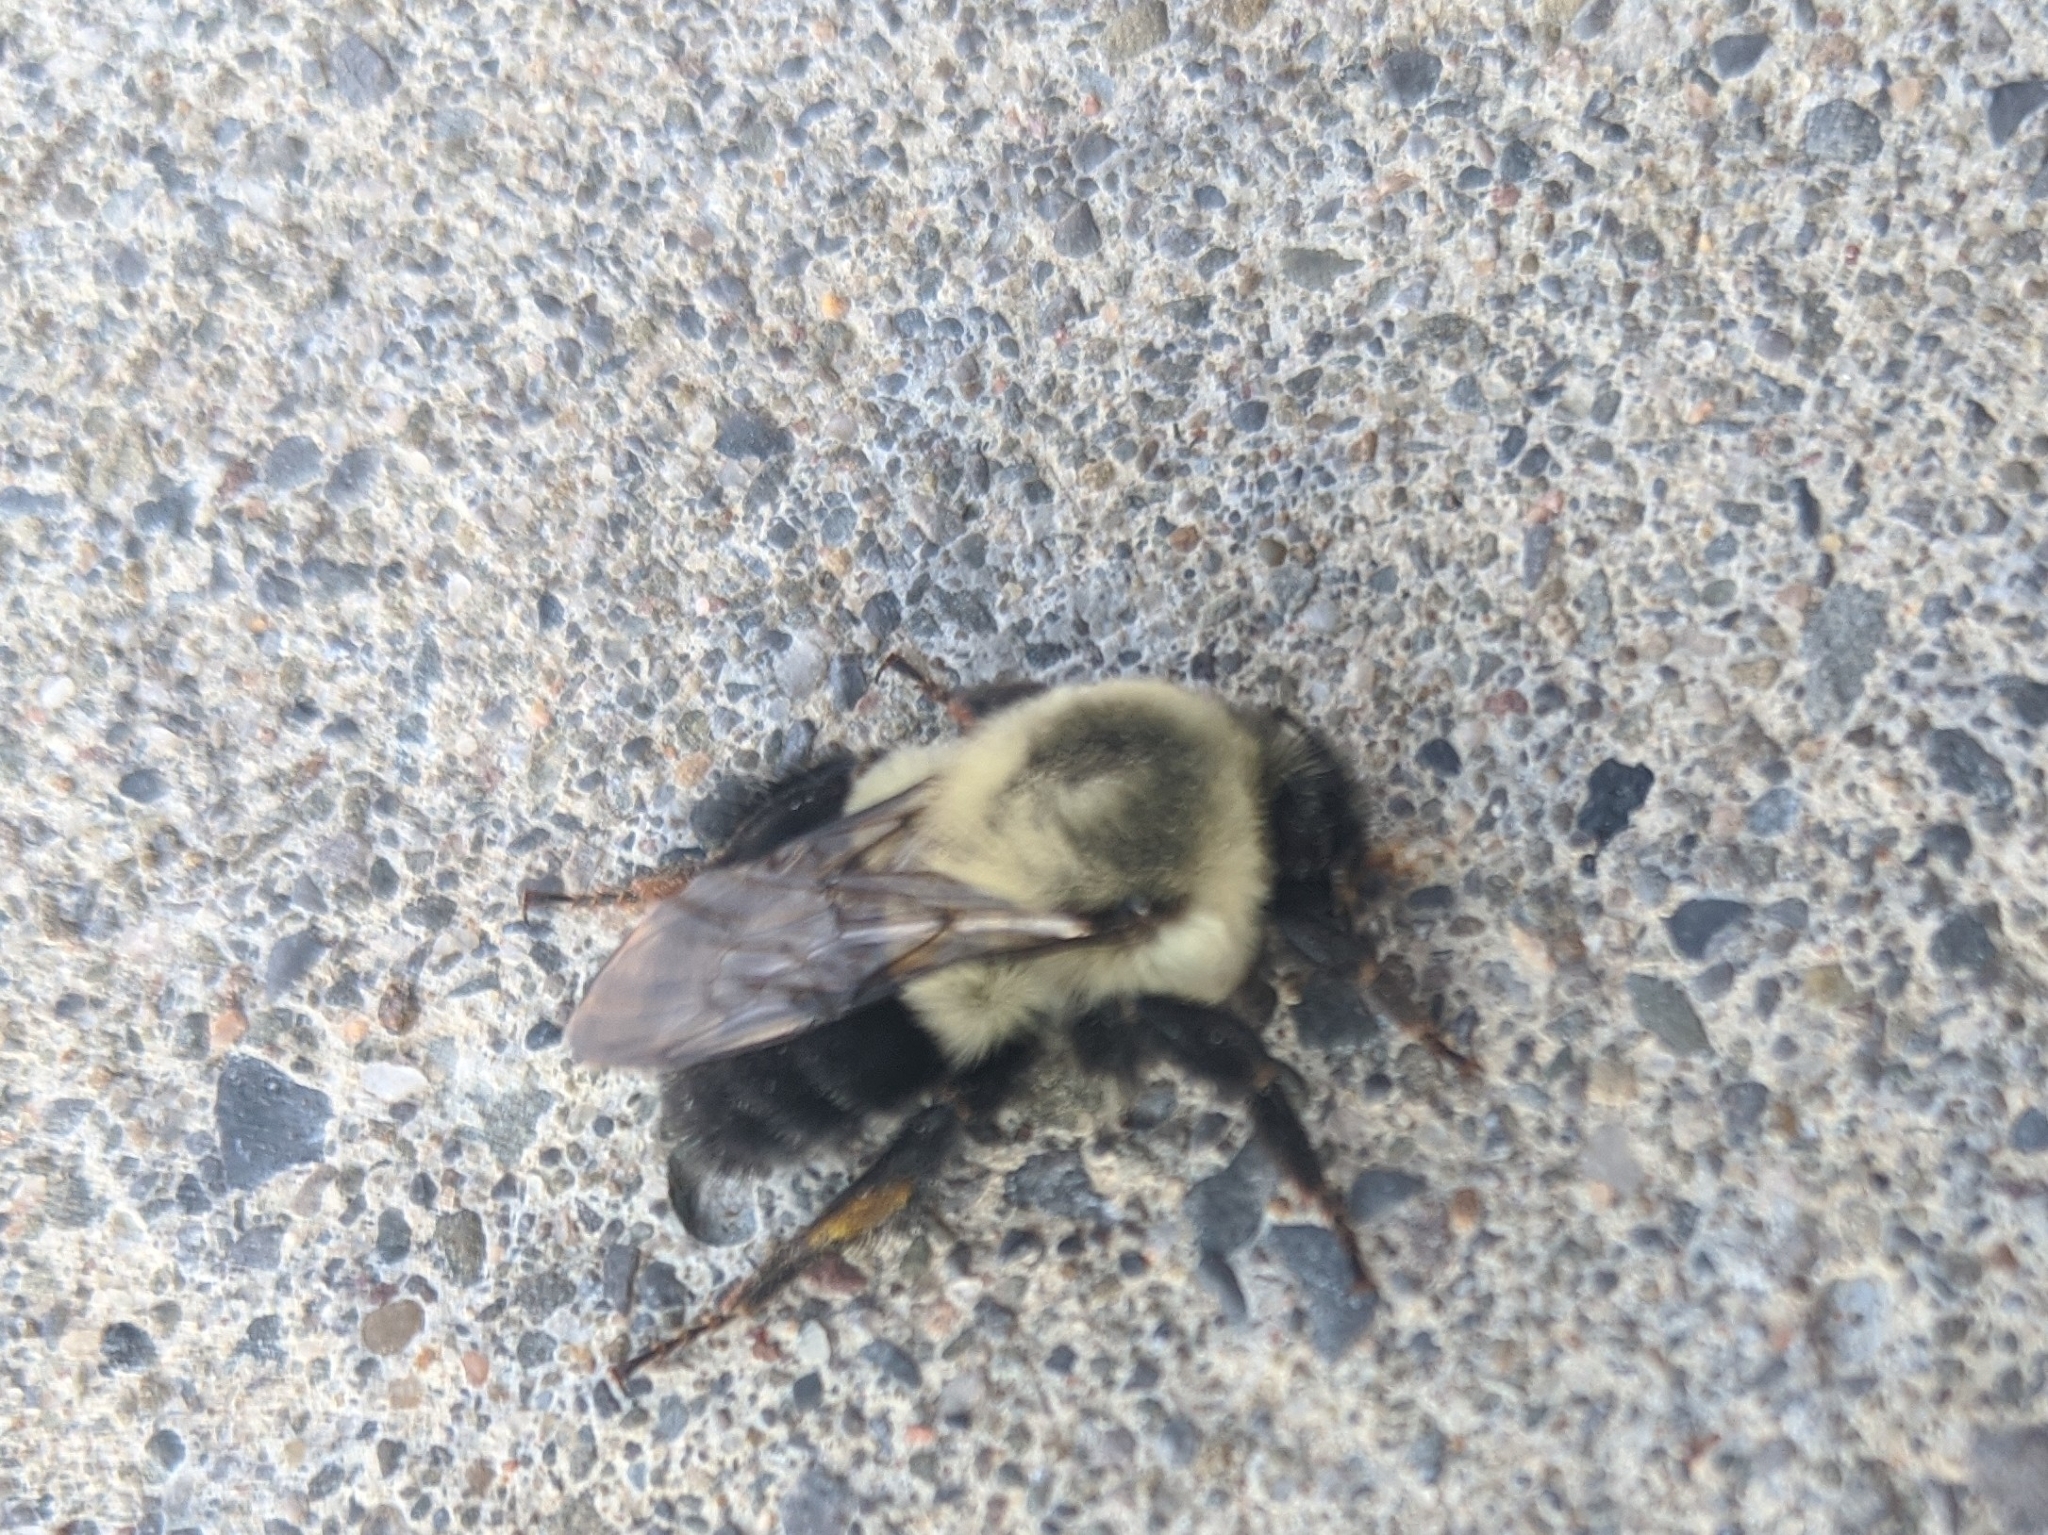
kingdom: Animalia
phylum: Arthropoda
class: Insecta
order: Hymenoptera
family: Apidae
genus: Bombus
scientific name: Bombus impatiens
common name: Common eastern bumble bee
